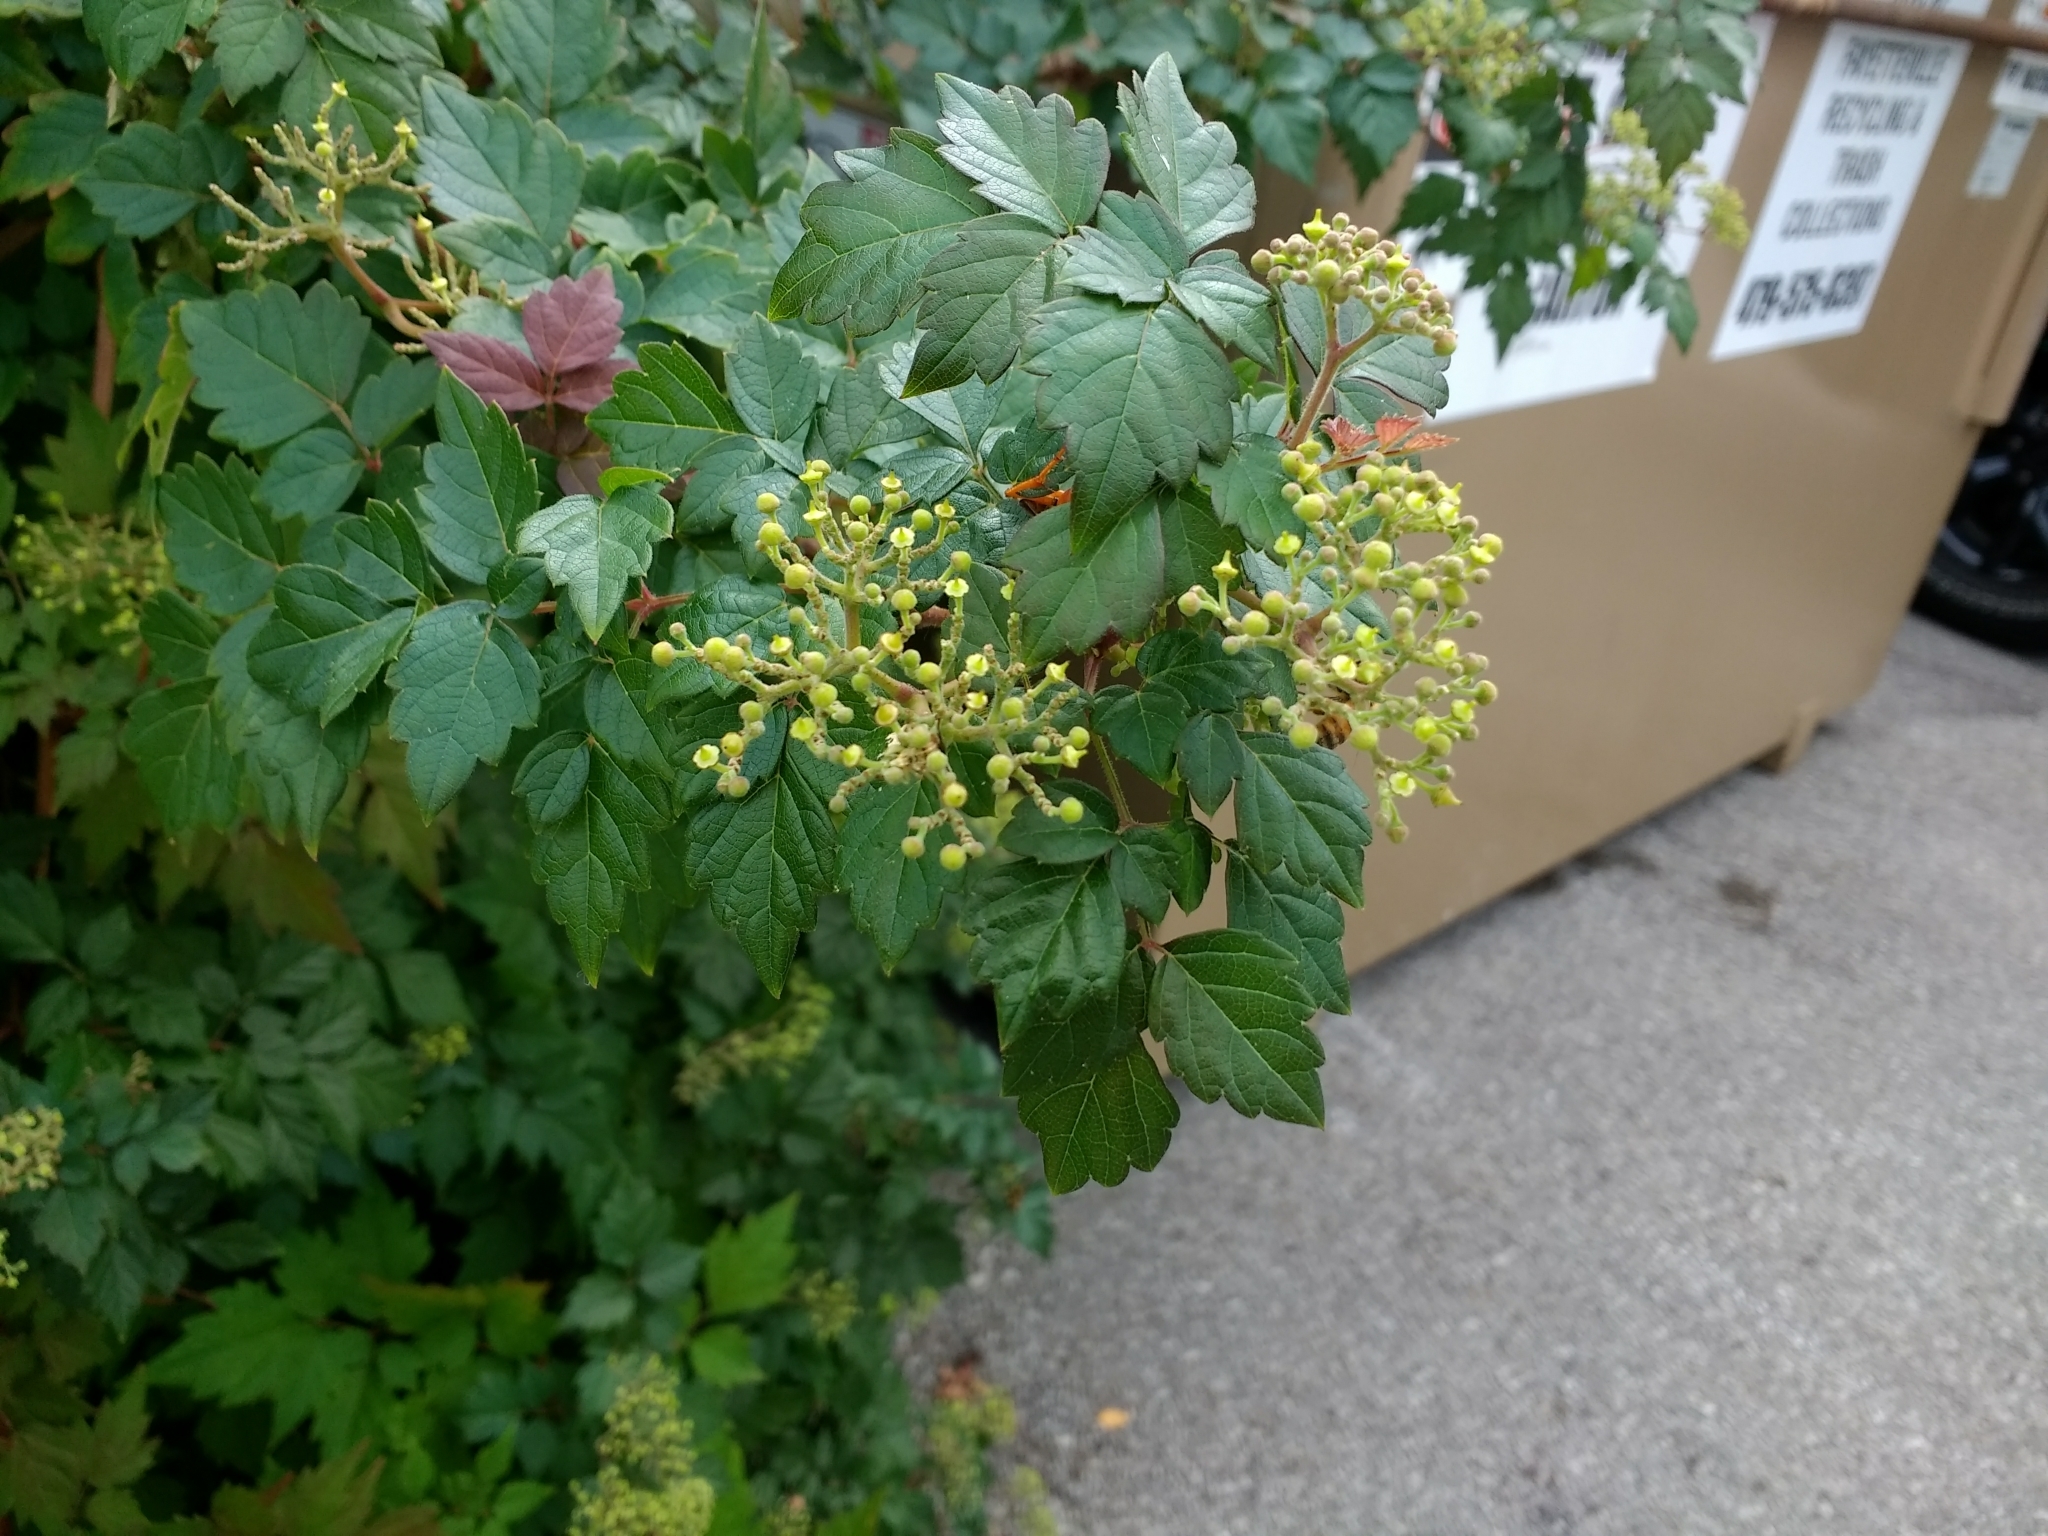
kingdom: Plantae
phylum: Tracheophyta
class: Magnoliopsida
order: Vitales
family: Vitaceae
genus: Nekemias
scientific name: Nekemias arborea
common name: Peppervine
